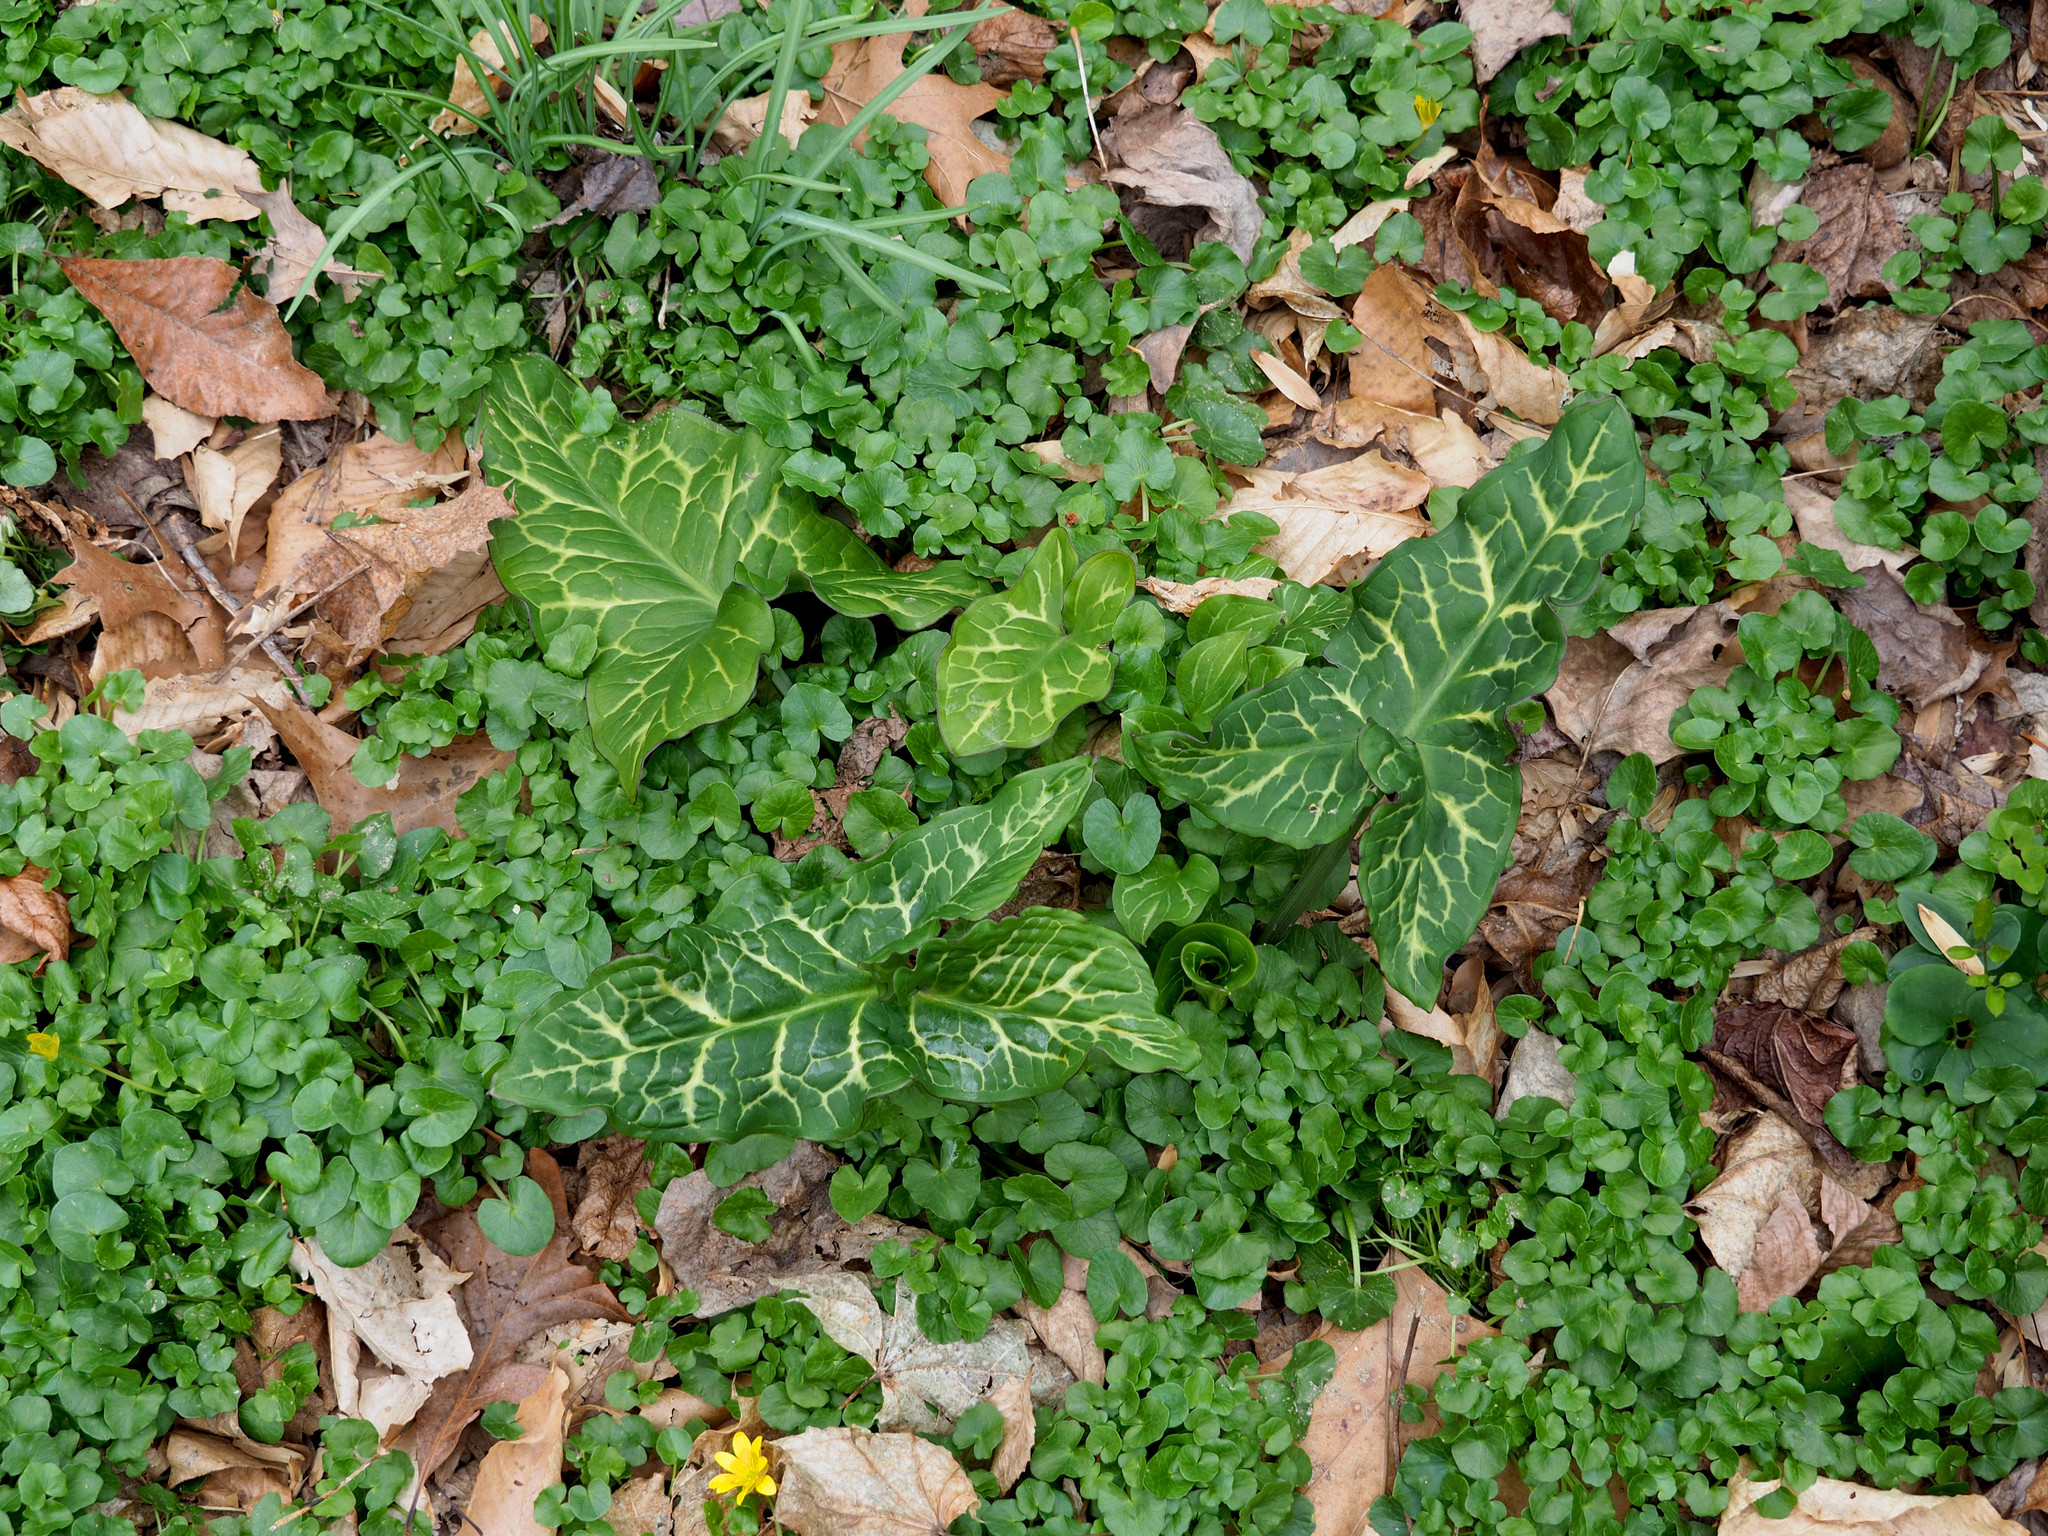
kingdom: Plantae
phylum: Tracheophyta
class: Liliopsida
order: Alismatales
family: Araceae
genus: Arum
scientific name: Arum italicum
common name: Italian lords-and-ladies
